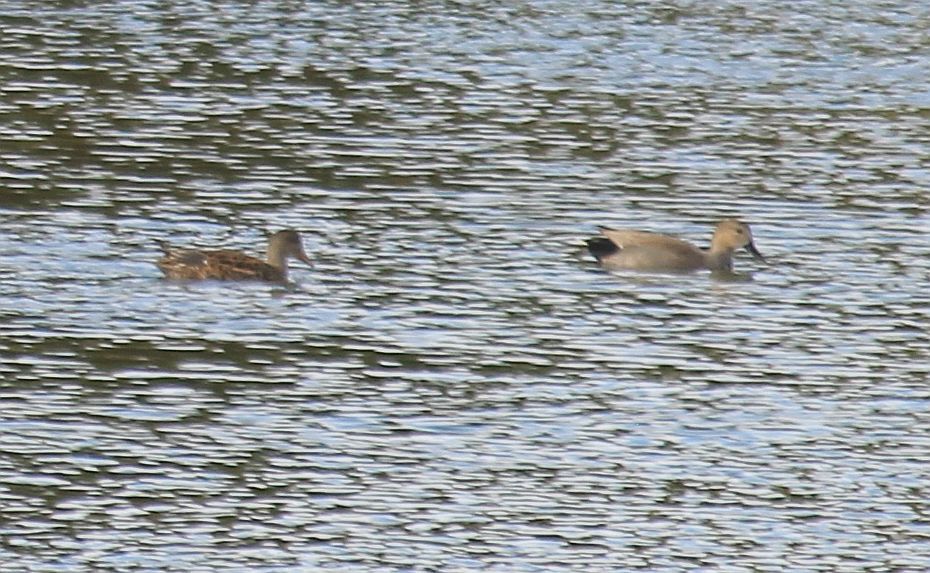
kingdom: Animalia
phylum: Chordata
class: Aves
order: Anseriformes
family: Anatidae
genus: Mareca
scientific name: Mareca strepera
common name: Gadwall
